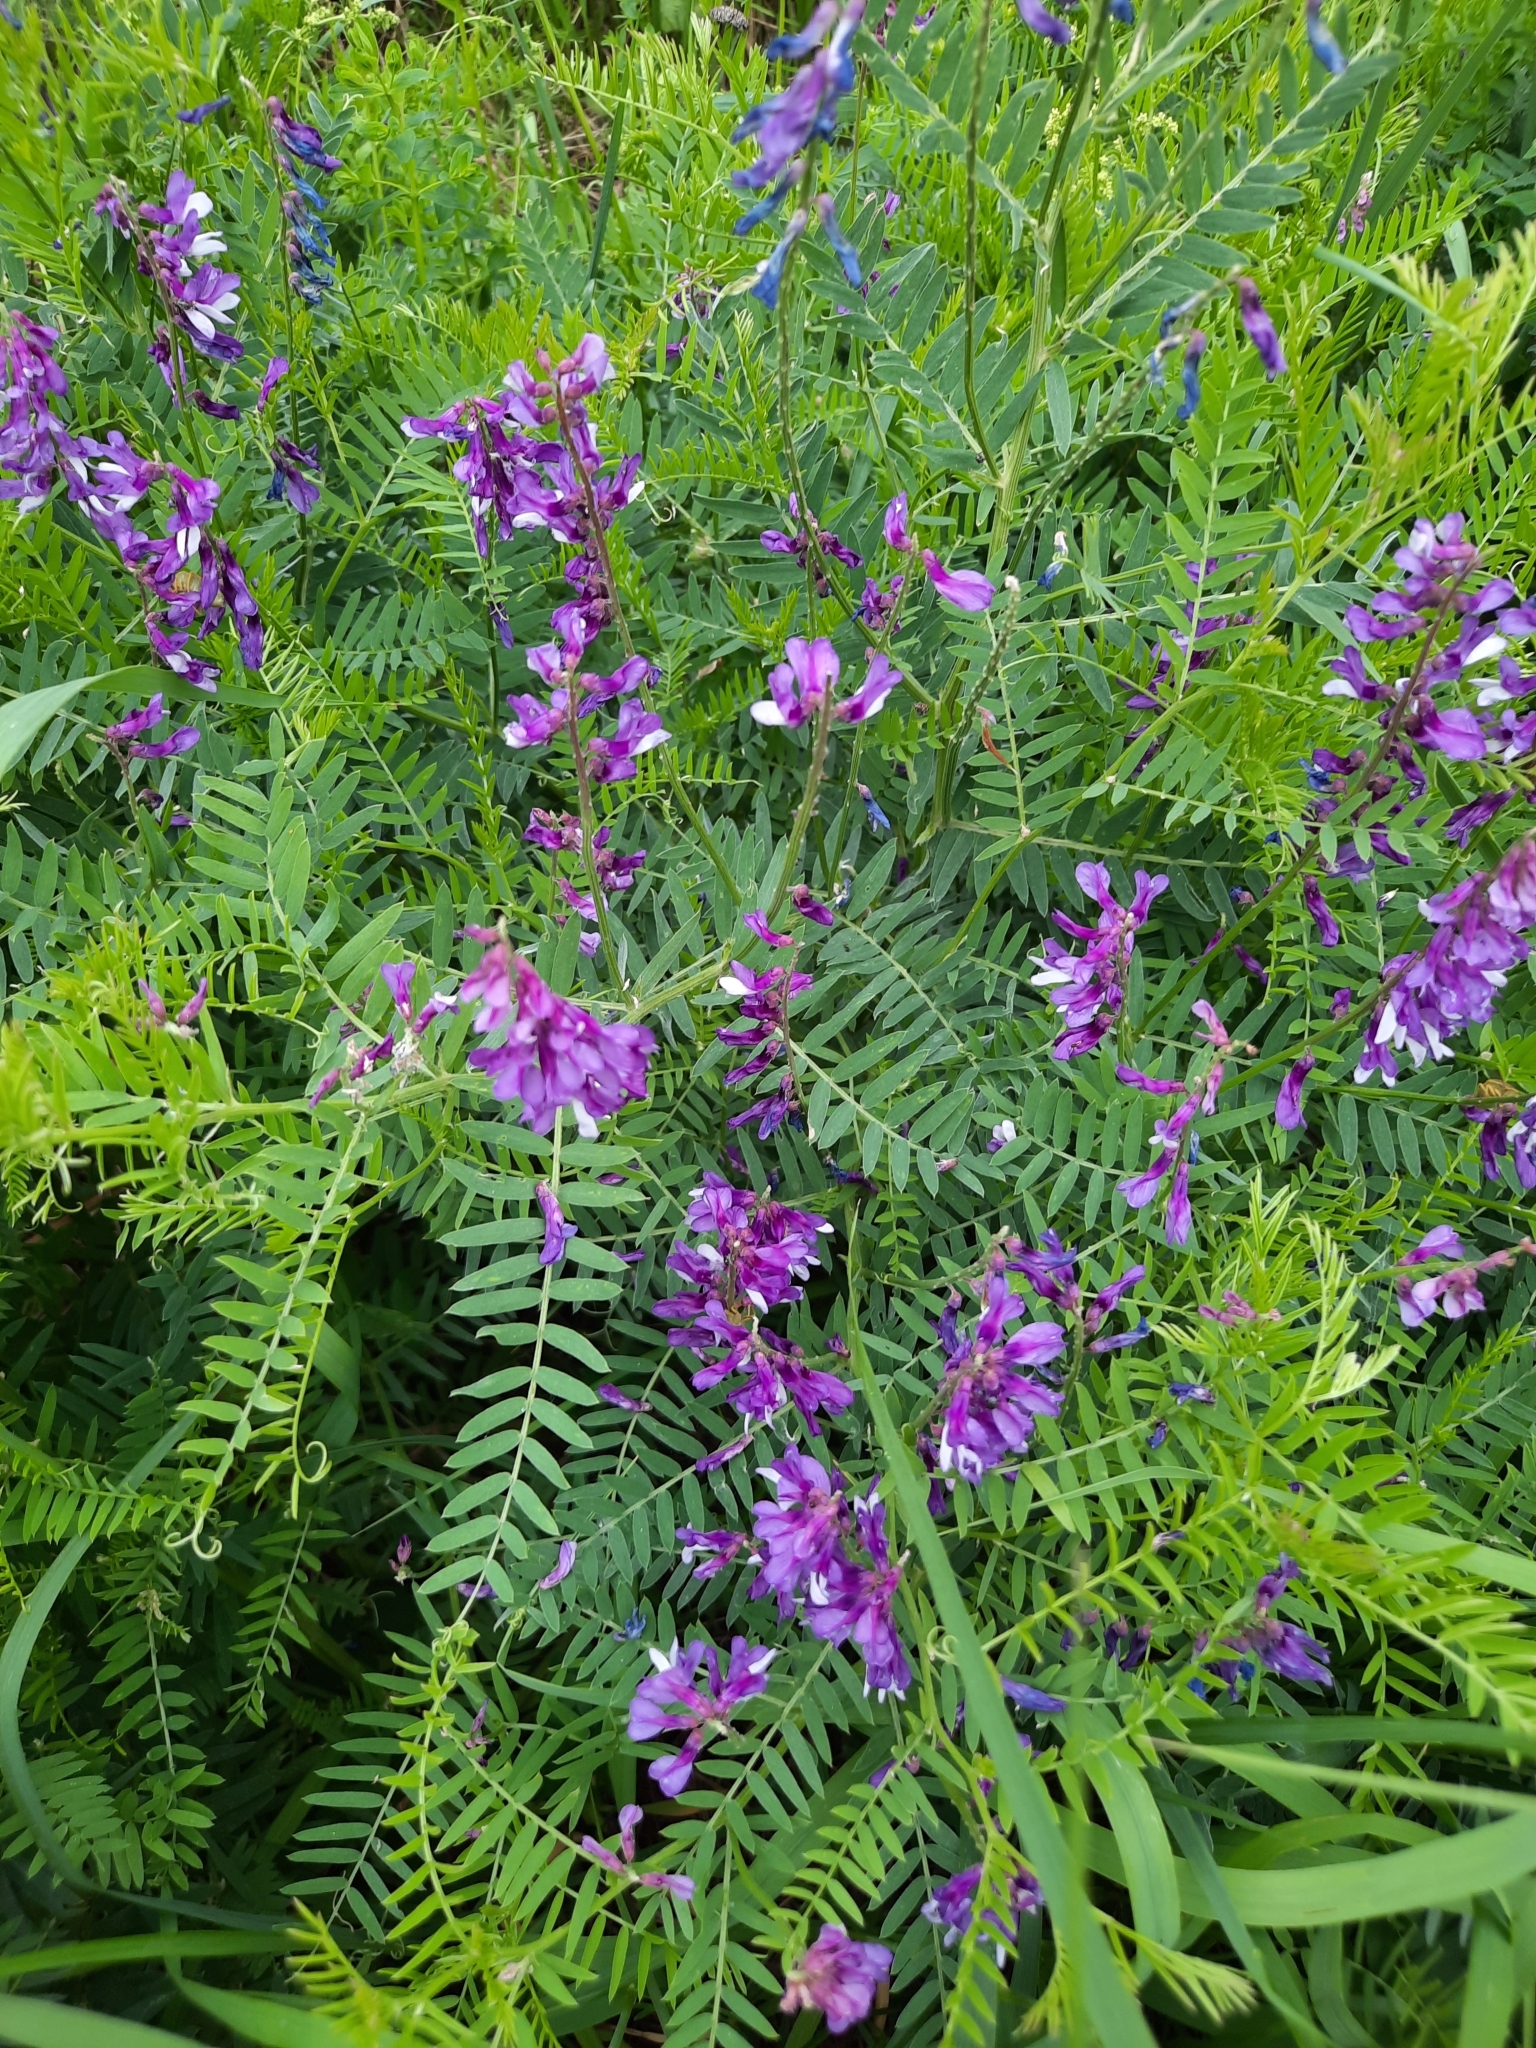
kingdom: Plantae
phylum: Tracheophyta
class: Magnoliopsida
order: Fabales
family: Fabaceae
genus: Vicia
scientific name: Vicia tenuifolia
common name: Fine-leaved vetch
